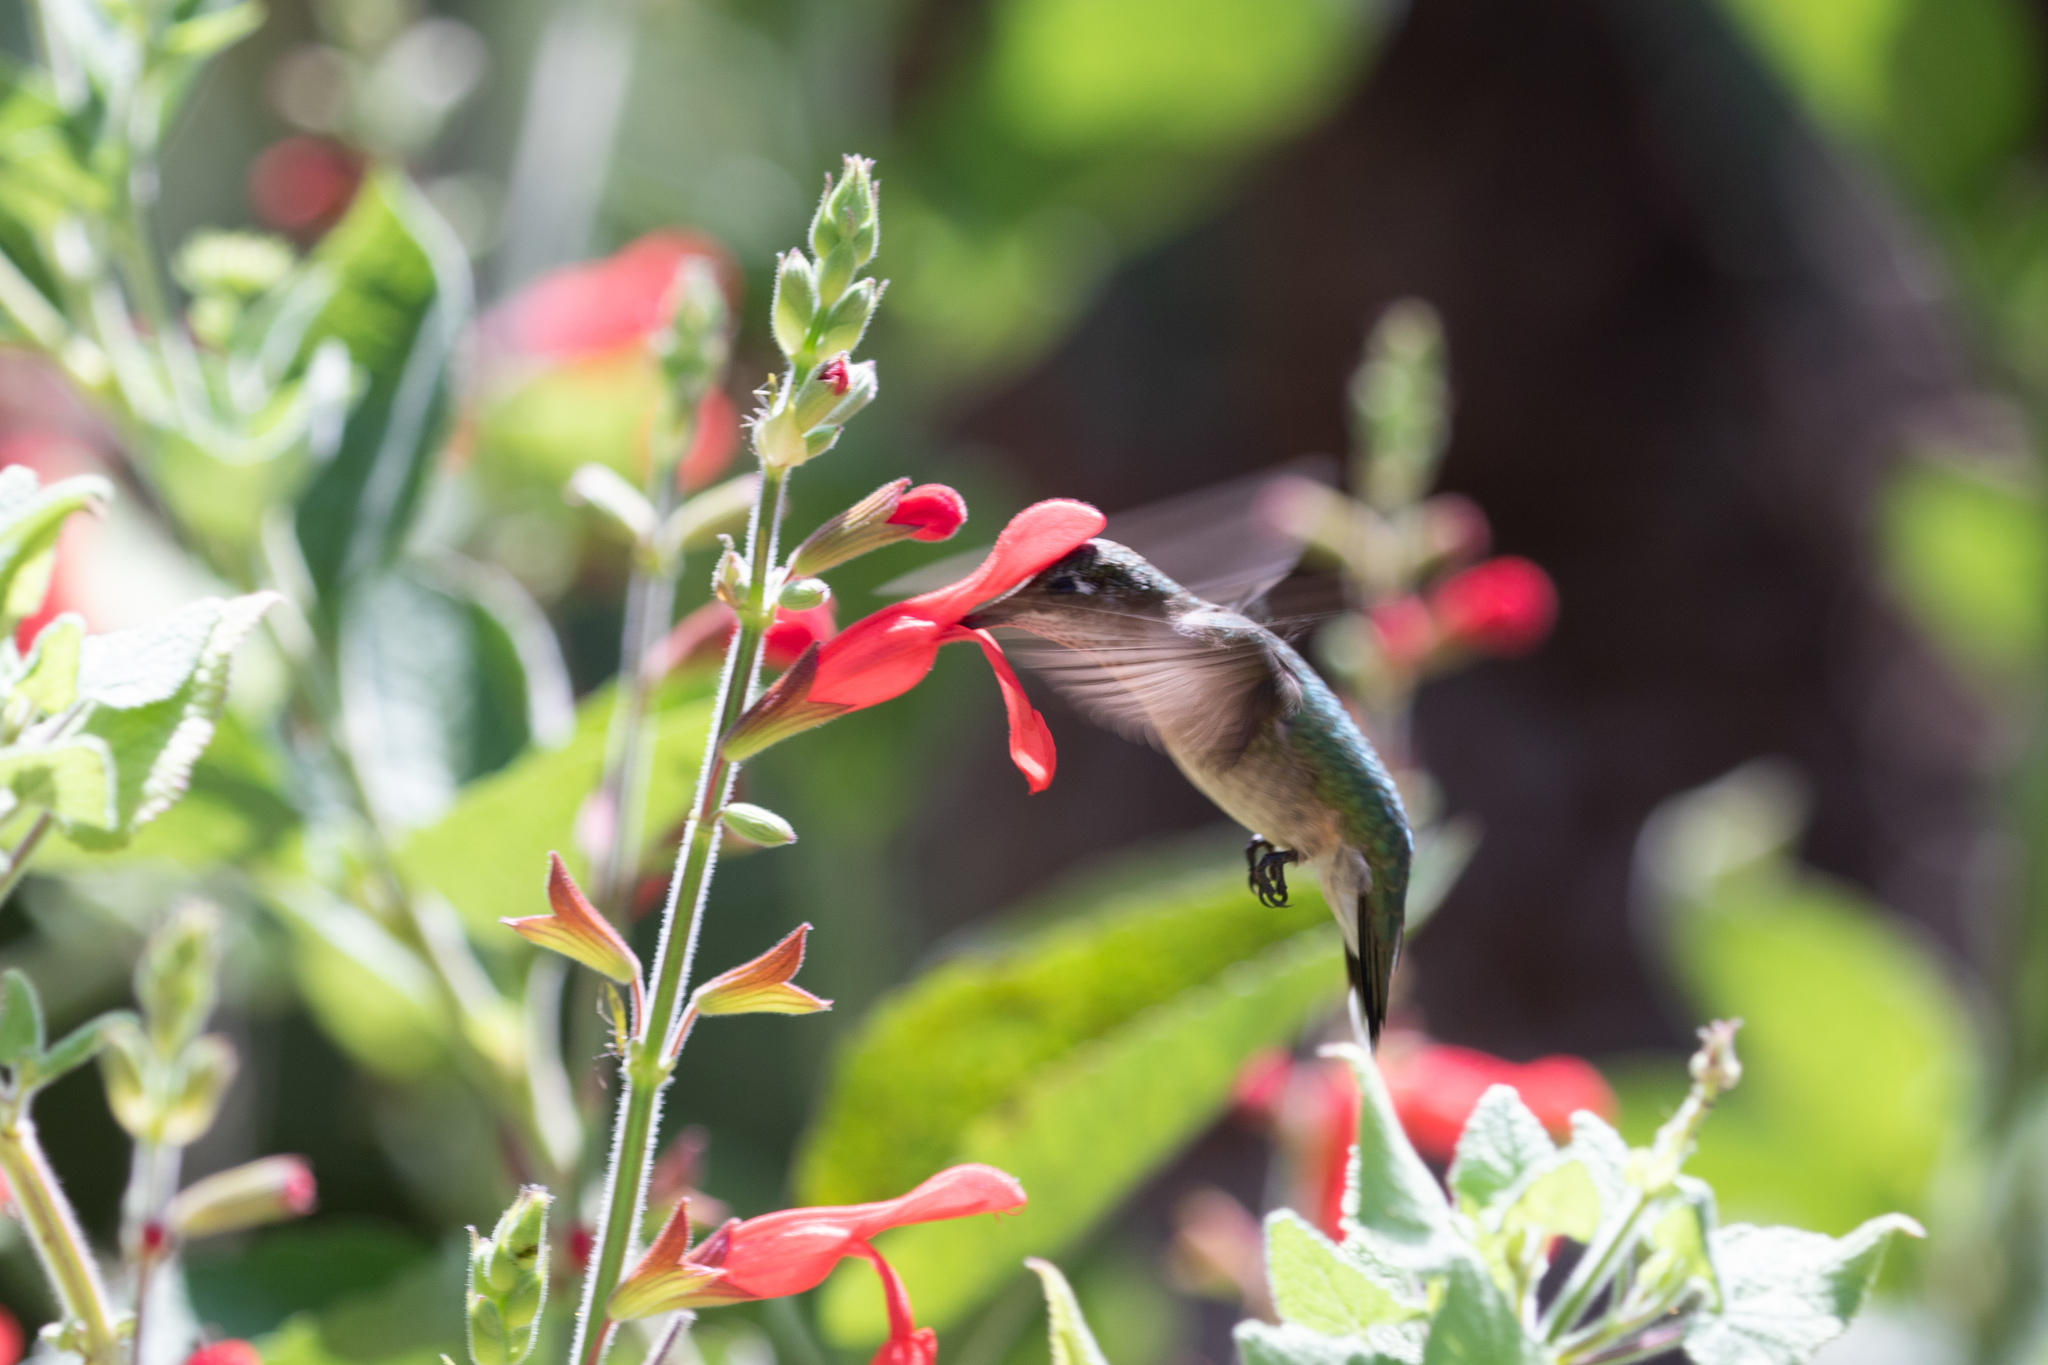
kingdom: Animalia
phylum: Chordata
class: Aves
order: Apodiformes
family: Trochilidae
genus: Archilochus
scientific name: Archilochus colubris
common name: Ruby-throated hummingbird
